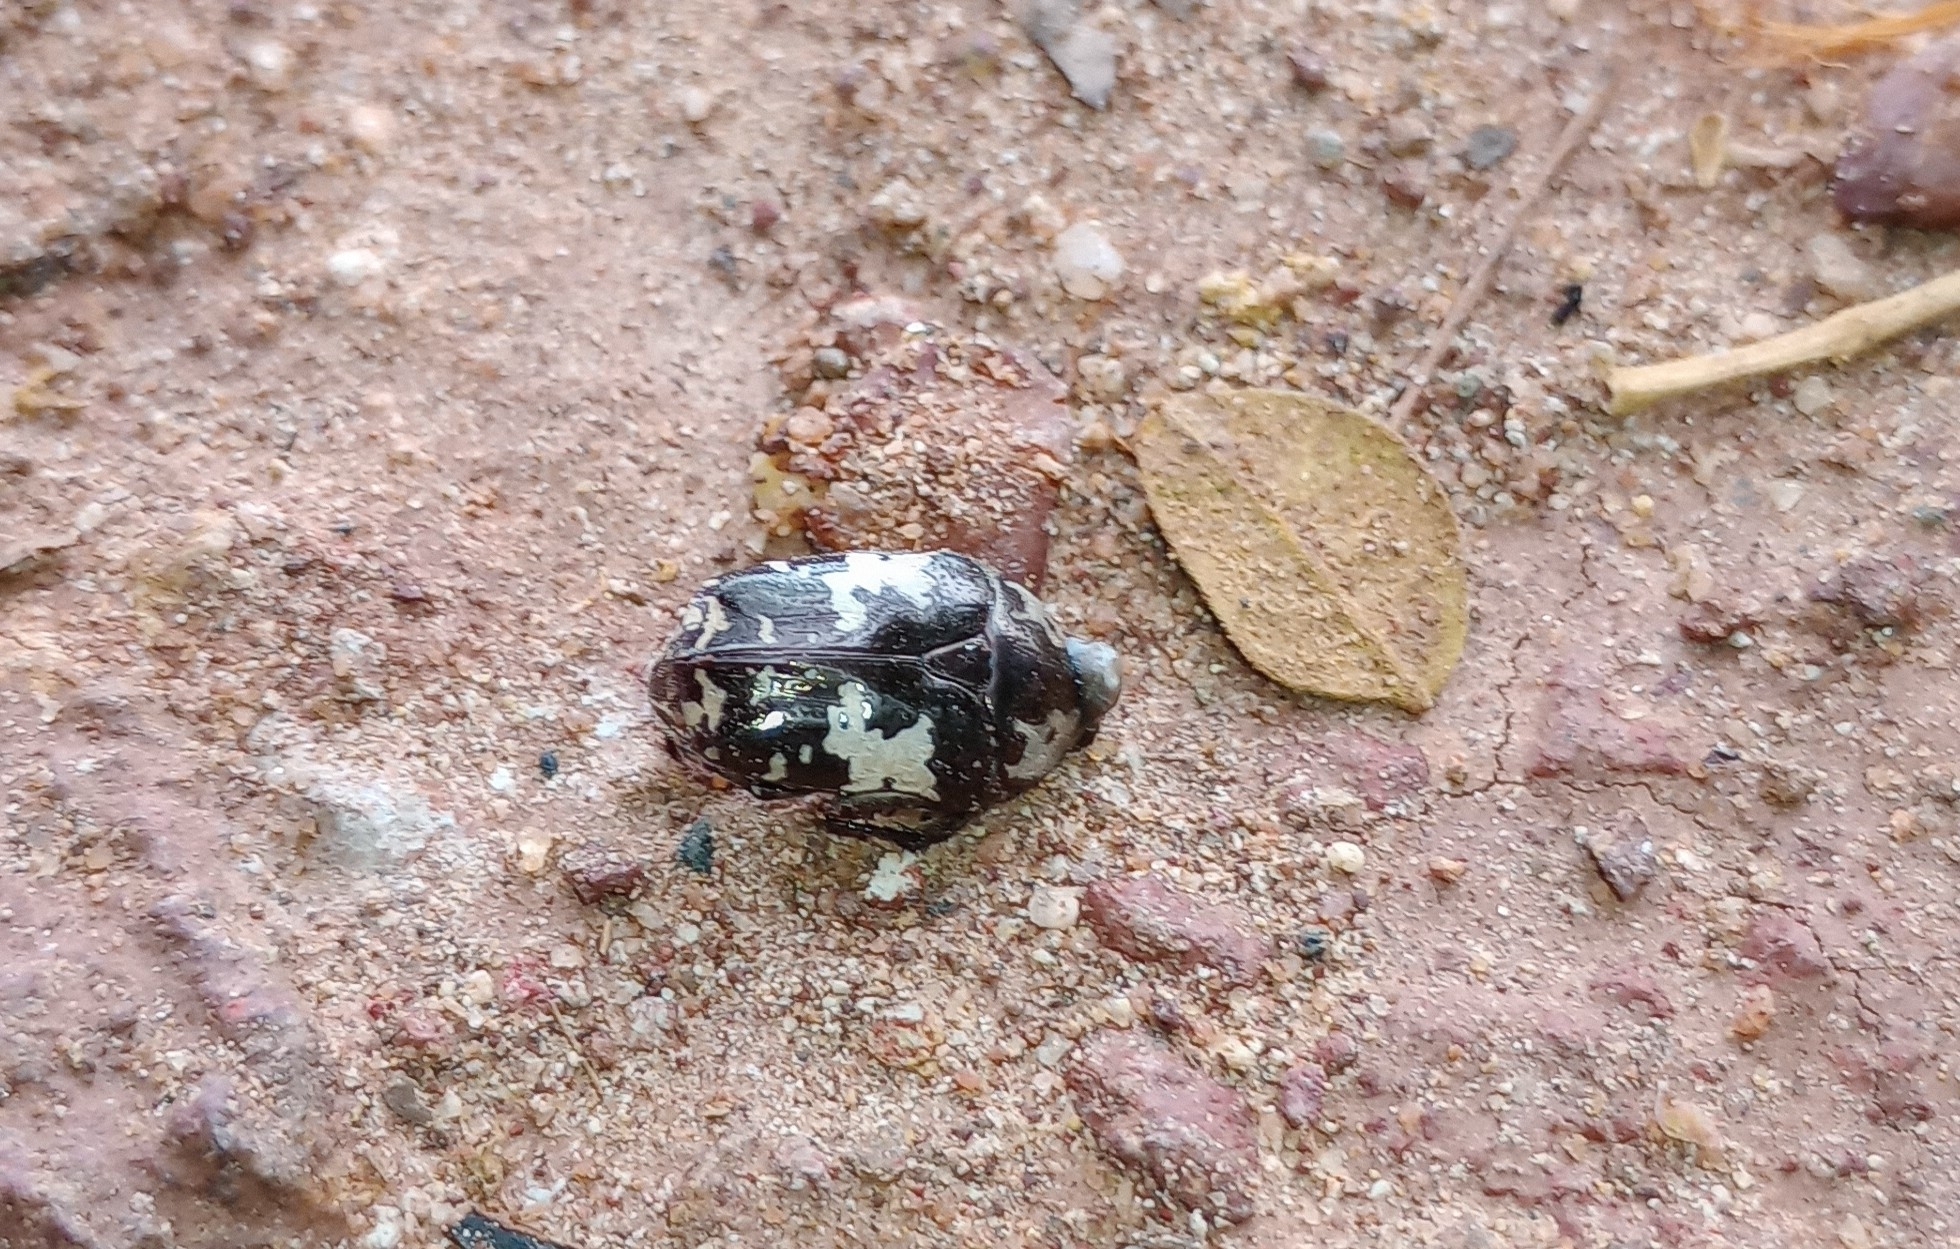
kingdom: Animalia
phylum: Arthropoda
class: Insecta
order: Coleoptera
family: Scarabaeidae
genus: Protaetia
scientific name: Protaetia aurichalcea
